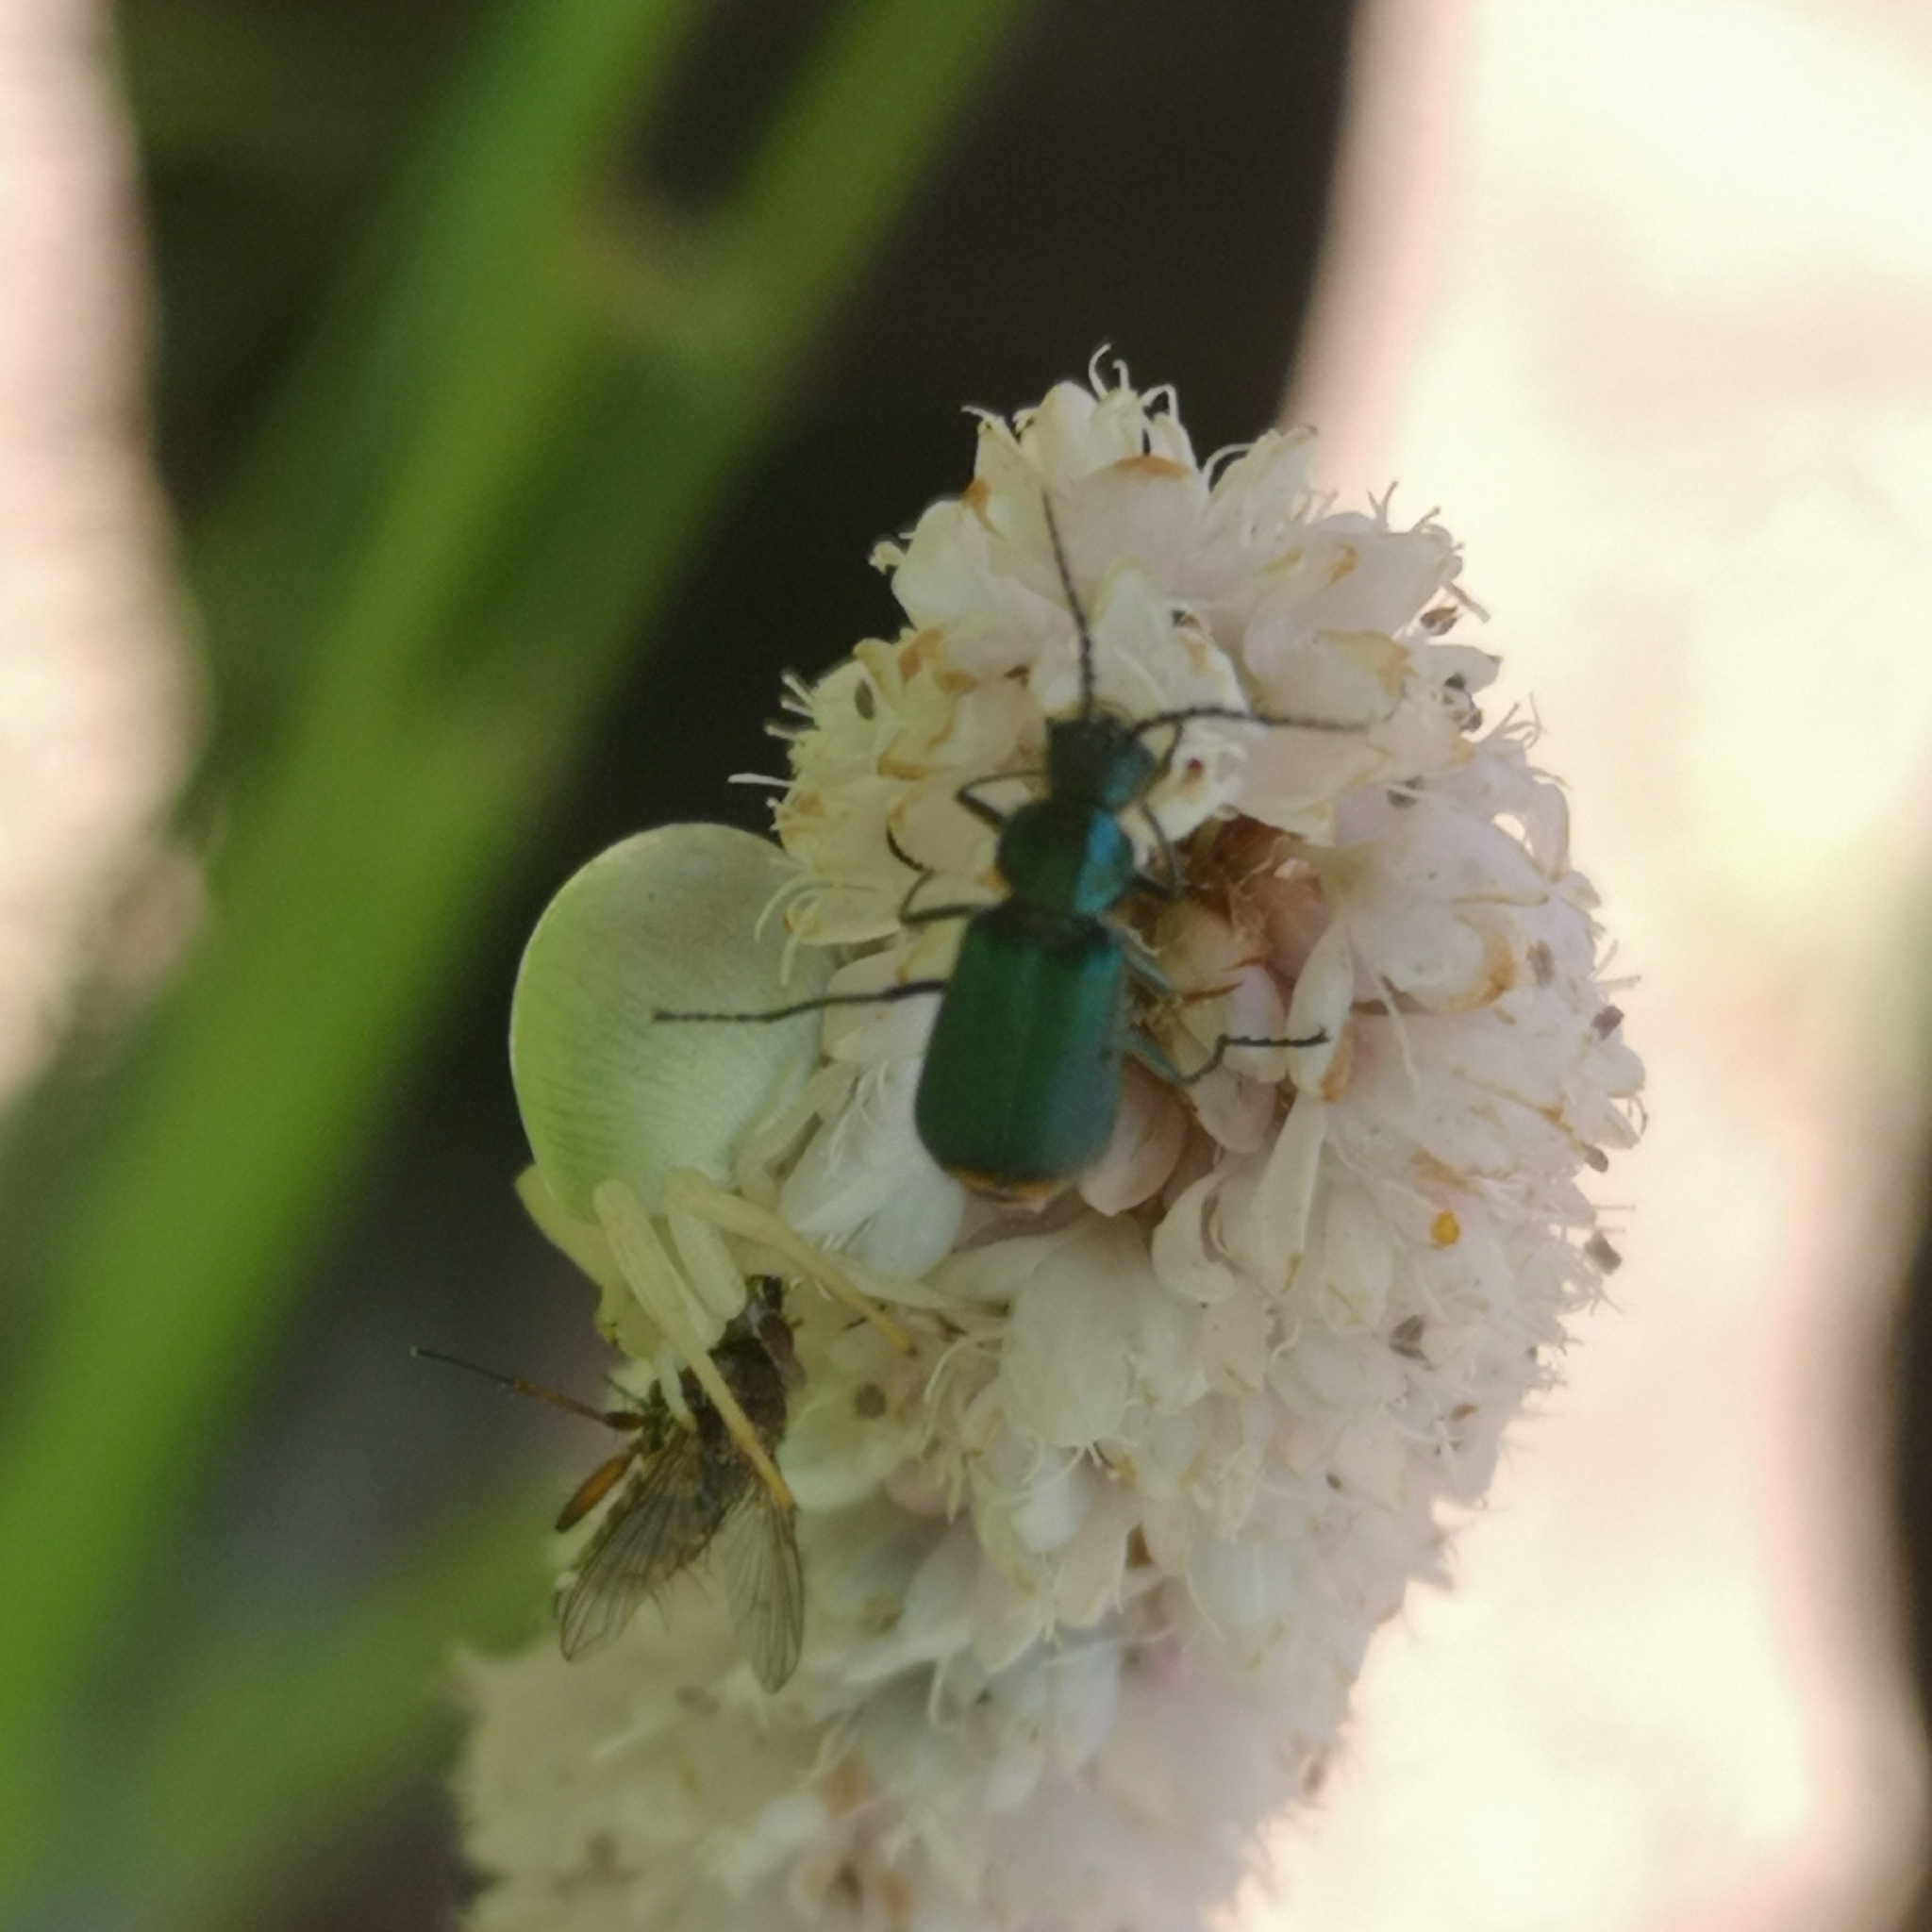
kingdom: Animalia
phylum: Arthropoda
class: Arachnida
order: Araneae
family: Thomisidae
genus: Misumena
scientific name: Misumena vatia
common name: Goldenrod crab spider
